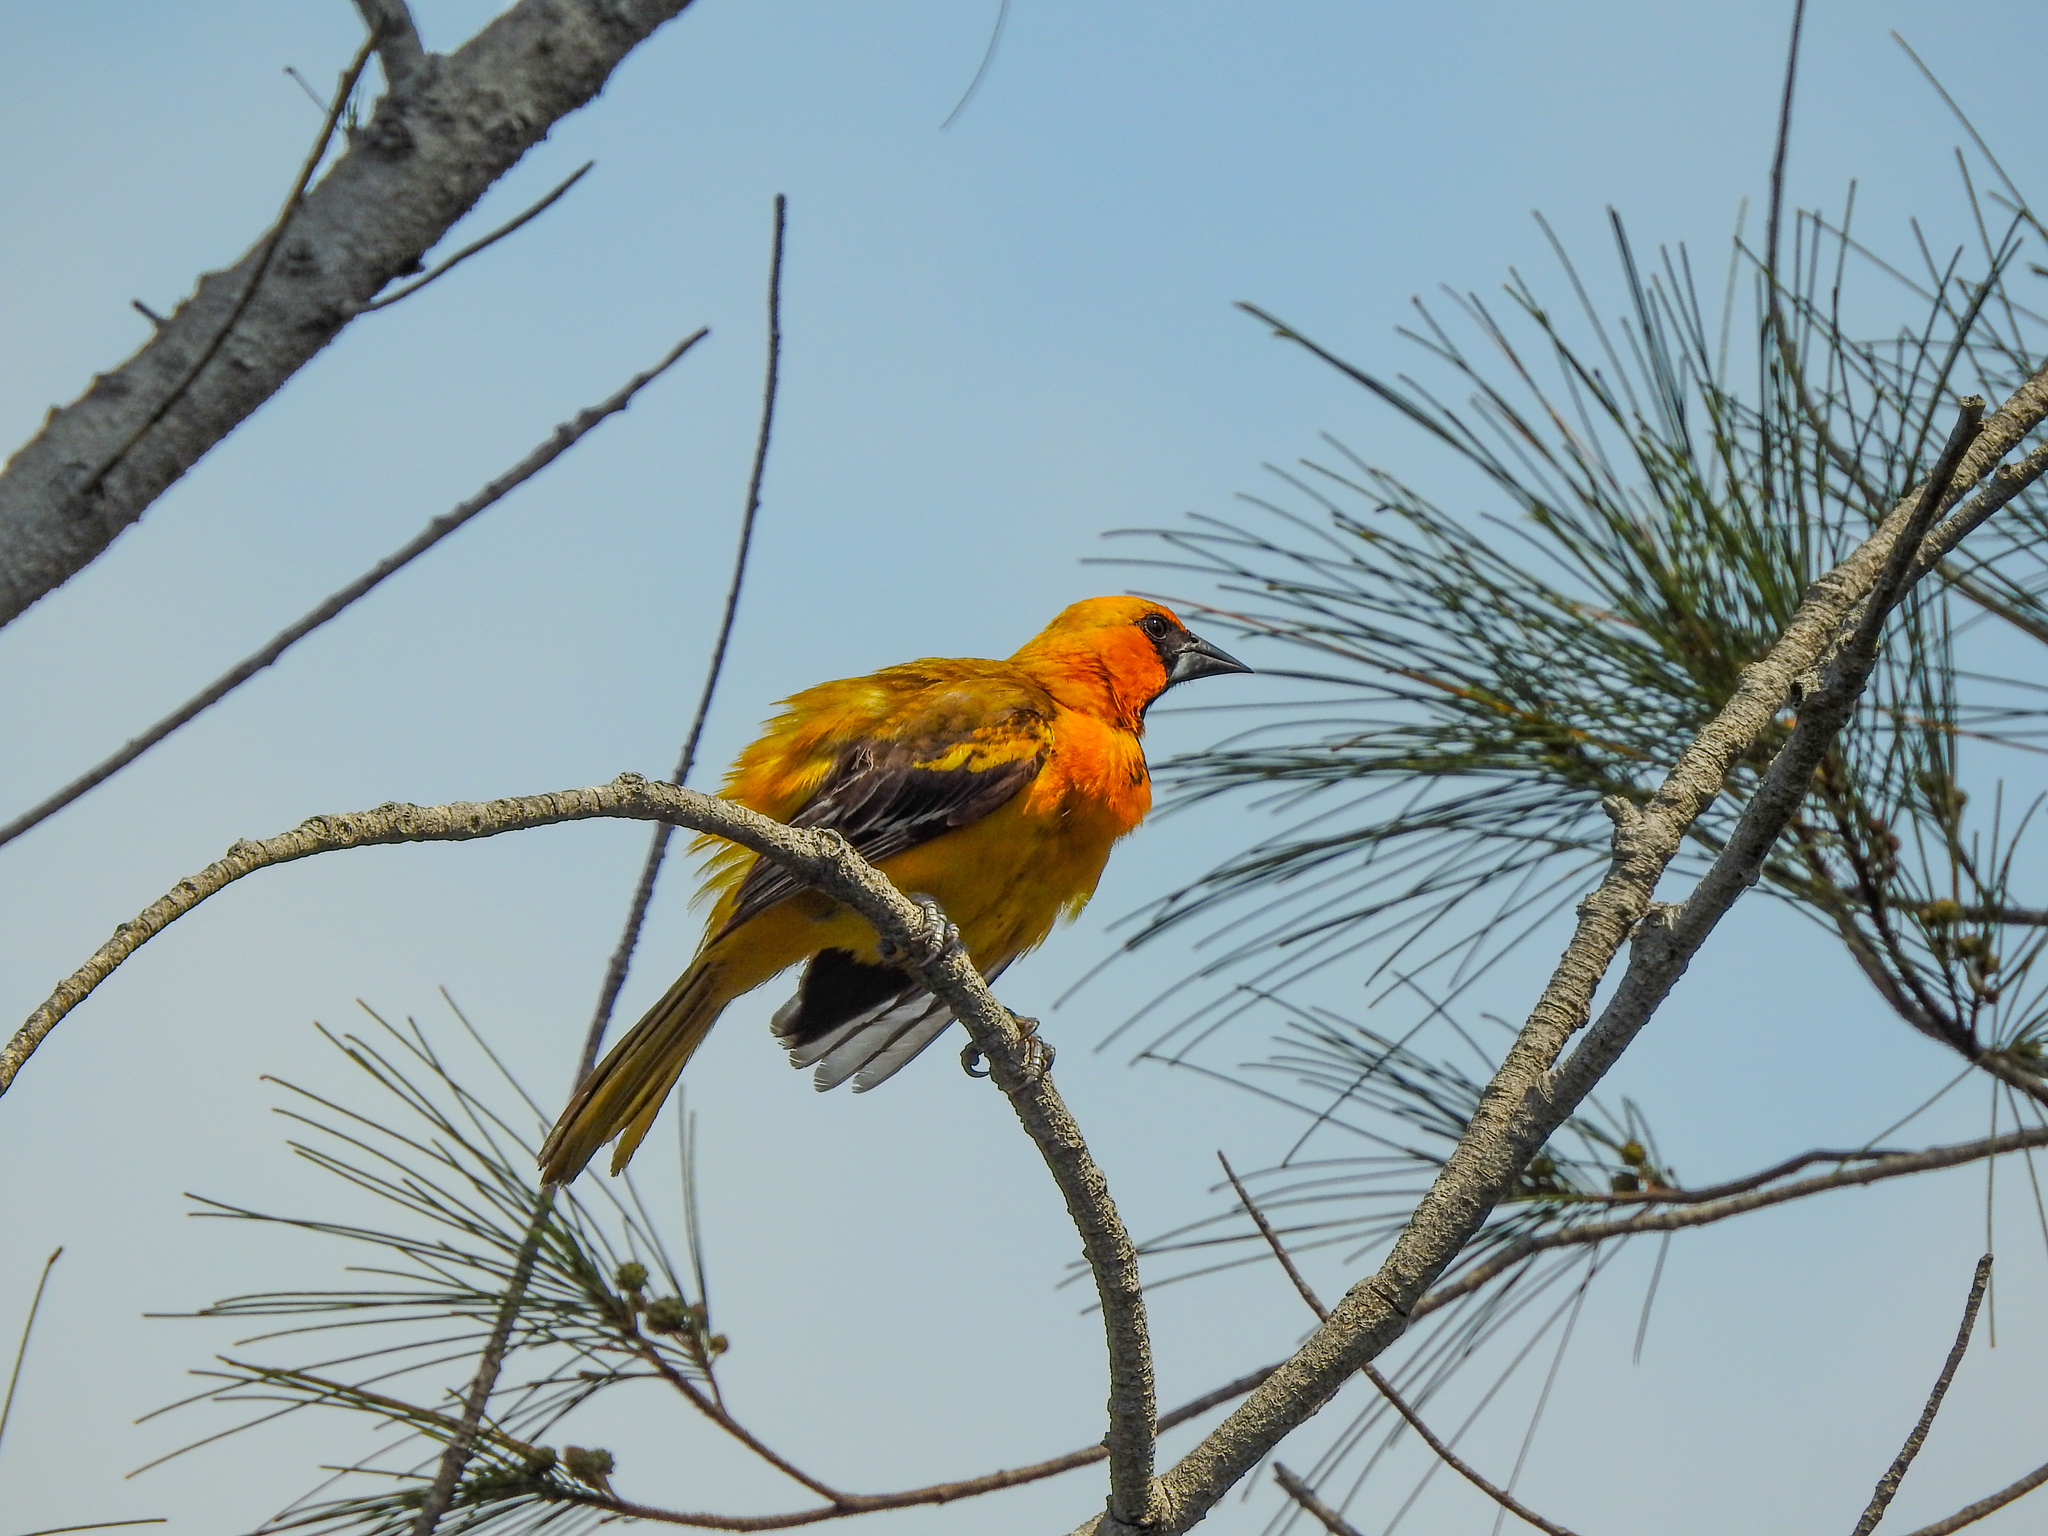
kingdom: Animalia
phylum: Chordata
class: Aves
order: Passeriformes
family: Icteridae
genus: Icterus
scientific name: Icterus gularis
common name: Altamira oriole
